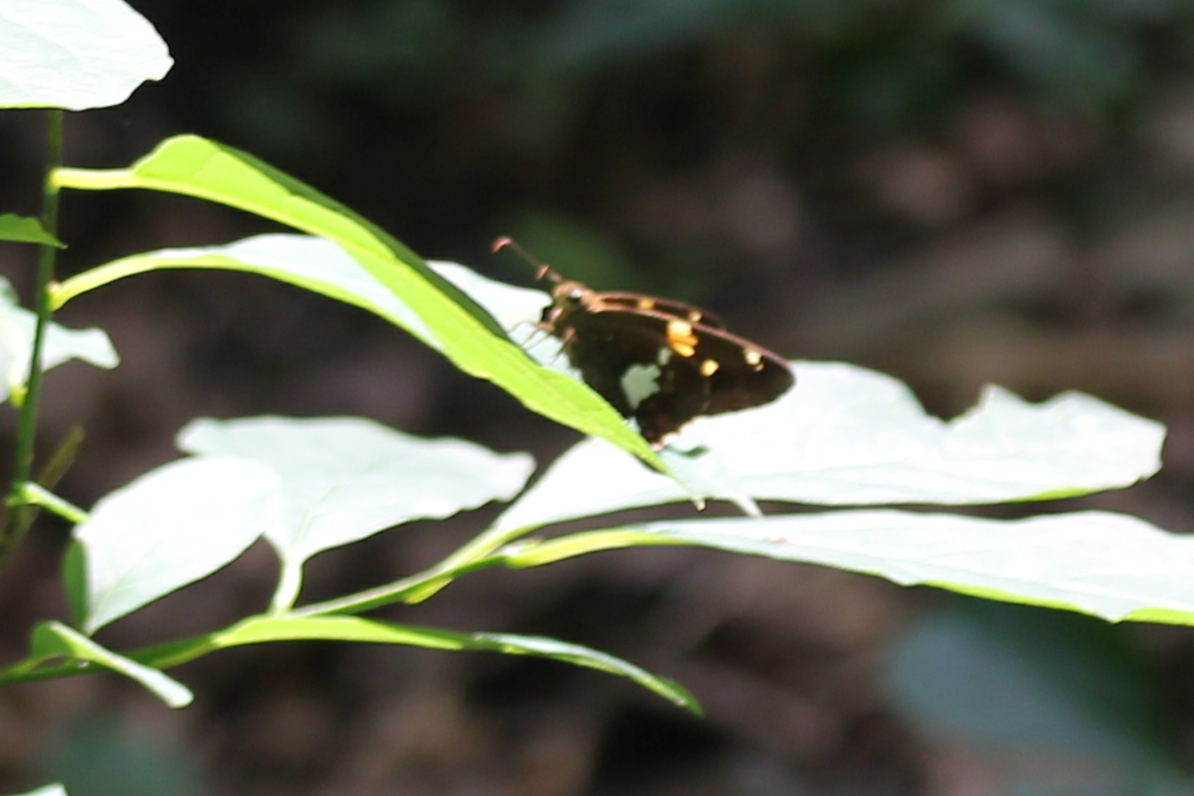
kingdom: Animalia
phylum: Arthropoda
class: Insecta
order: Lepidoptera
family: Hesperiidae
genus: Epargyreus
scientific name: Epargyreus clarus
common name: Silver-spotted skipper
